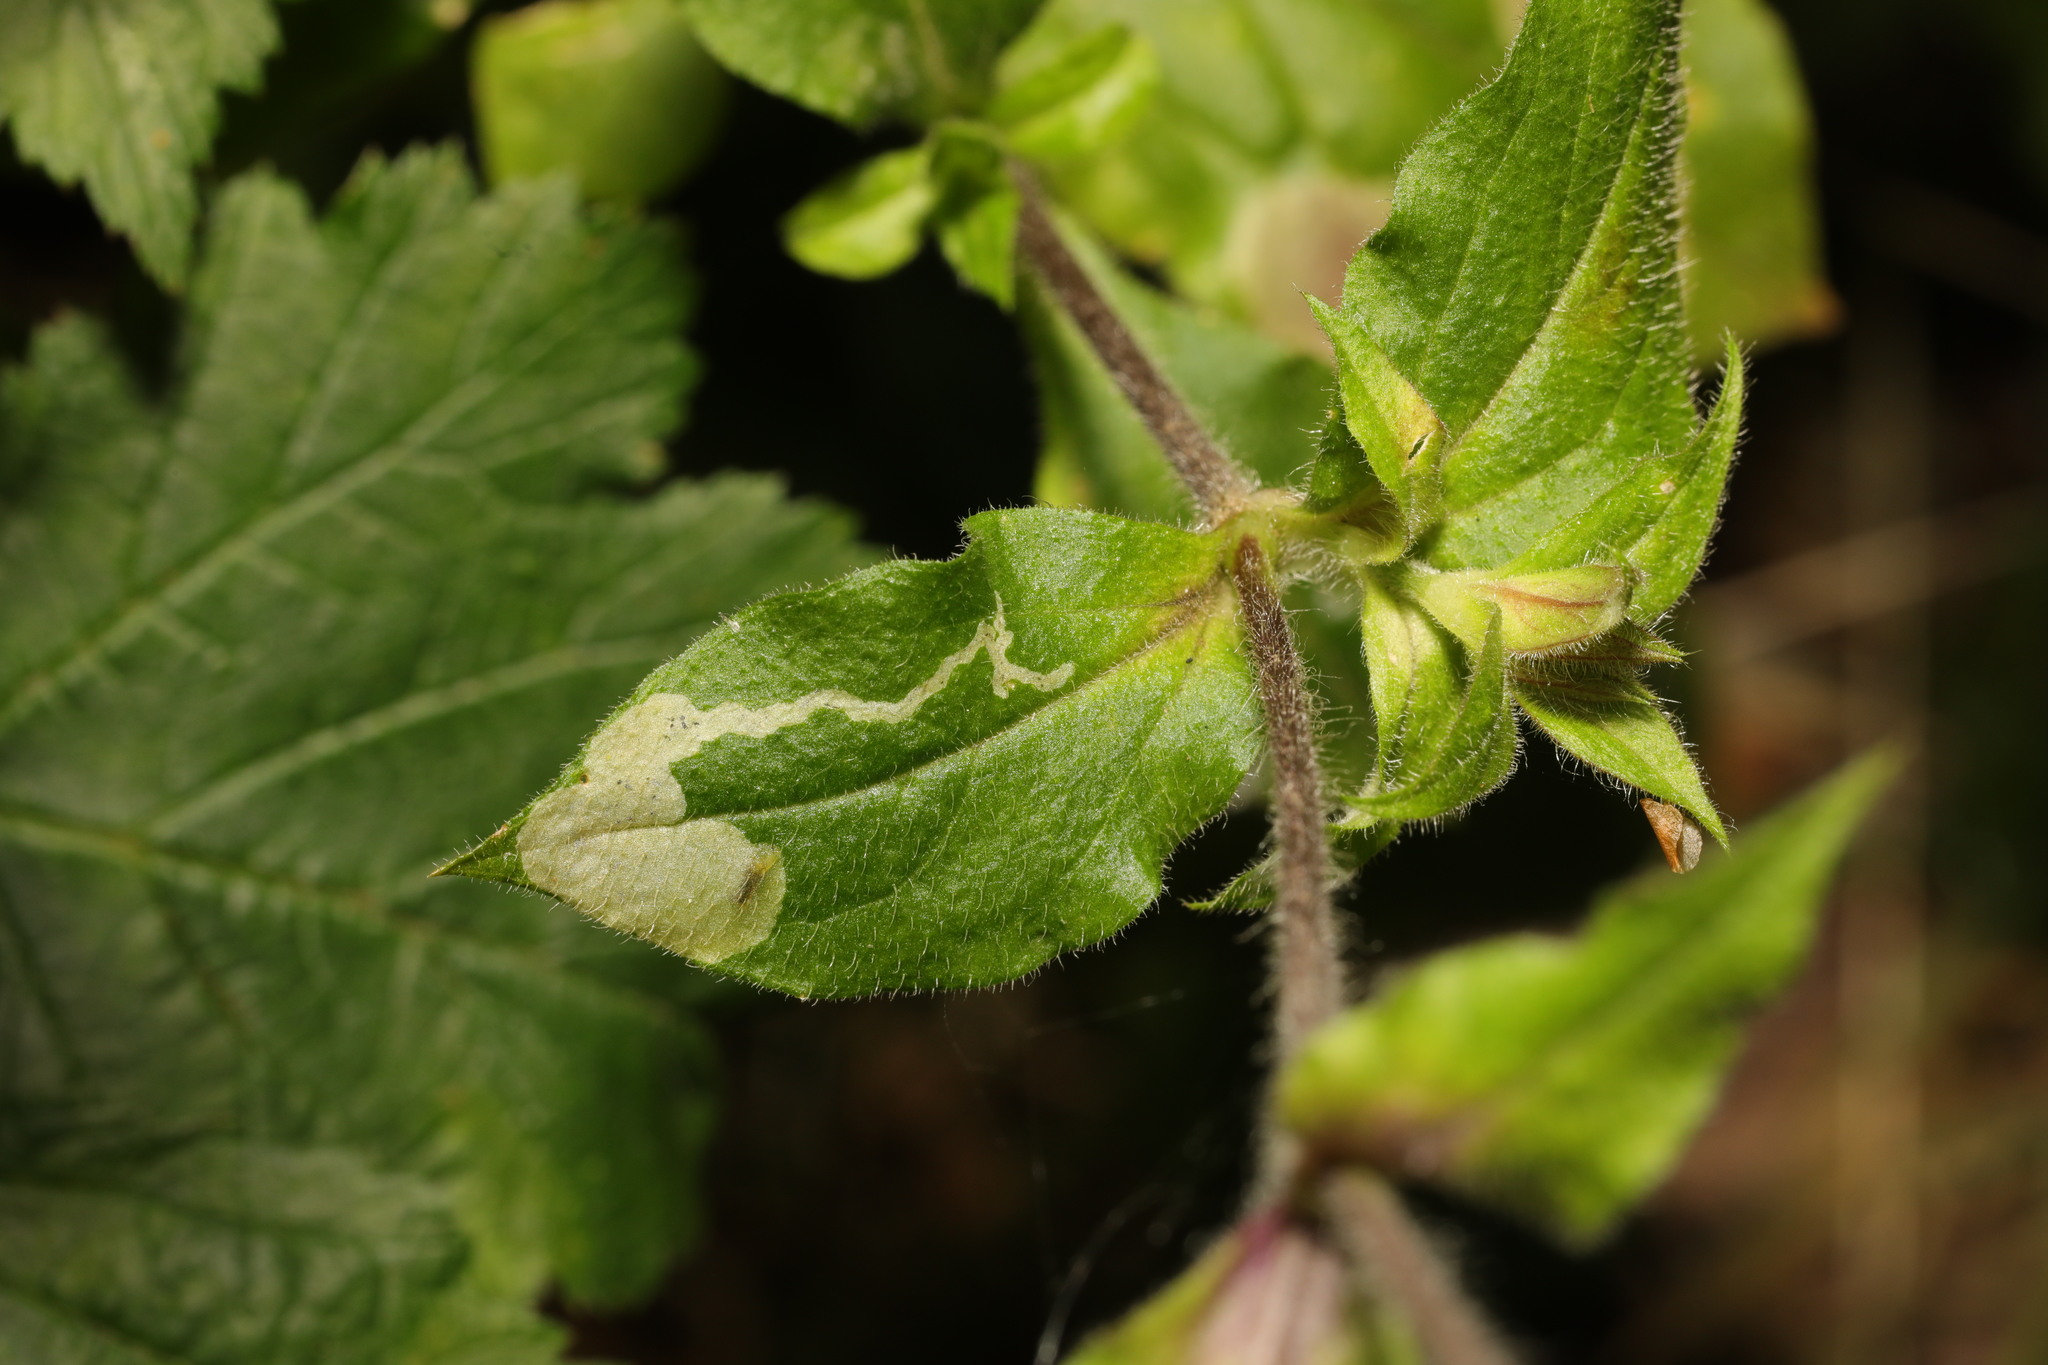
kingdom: Animalia
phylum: Arthropoda
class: Insecta
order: Diptera
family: Agromyzidae
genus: Amauromyza
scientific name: Amauromyza flavifrons
